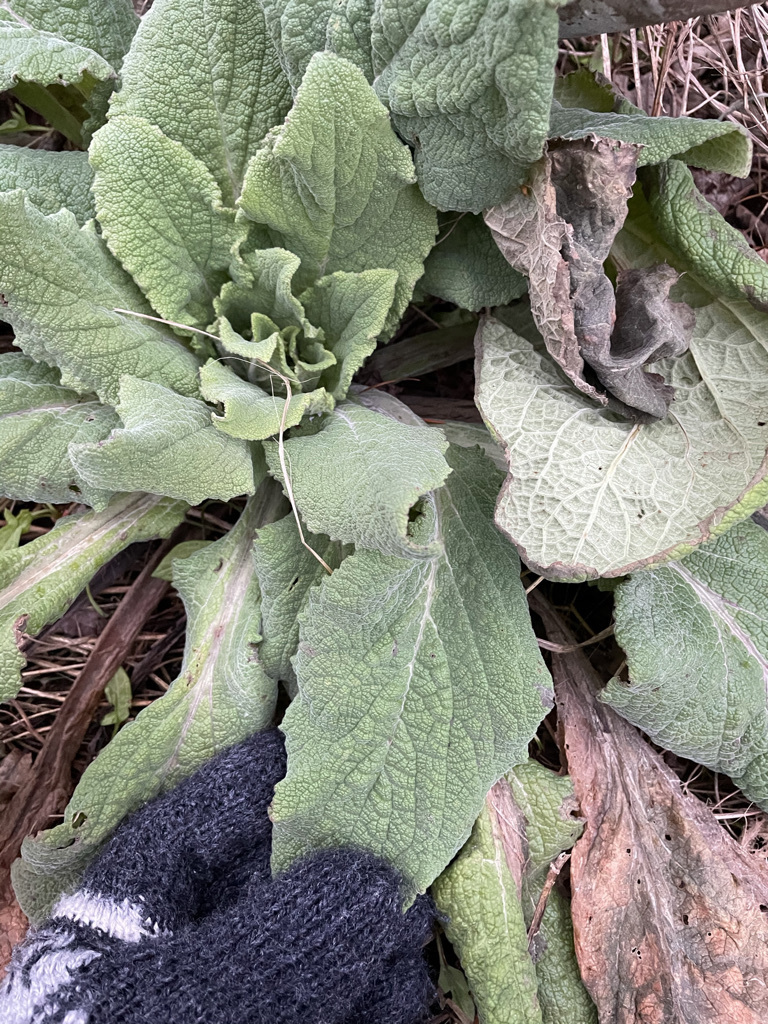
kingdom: Plantae
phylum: Tracheophyta
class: Magnoliopsida
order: Lamiales
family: Plantaginaceae
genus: Digitalis
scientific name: Digitalis purpurea
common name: Foxglove
